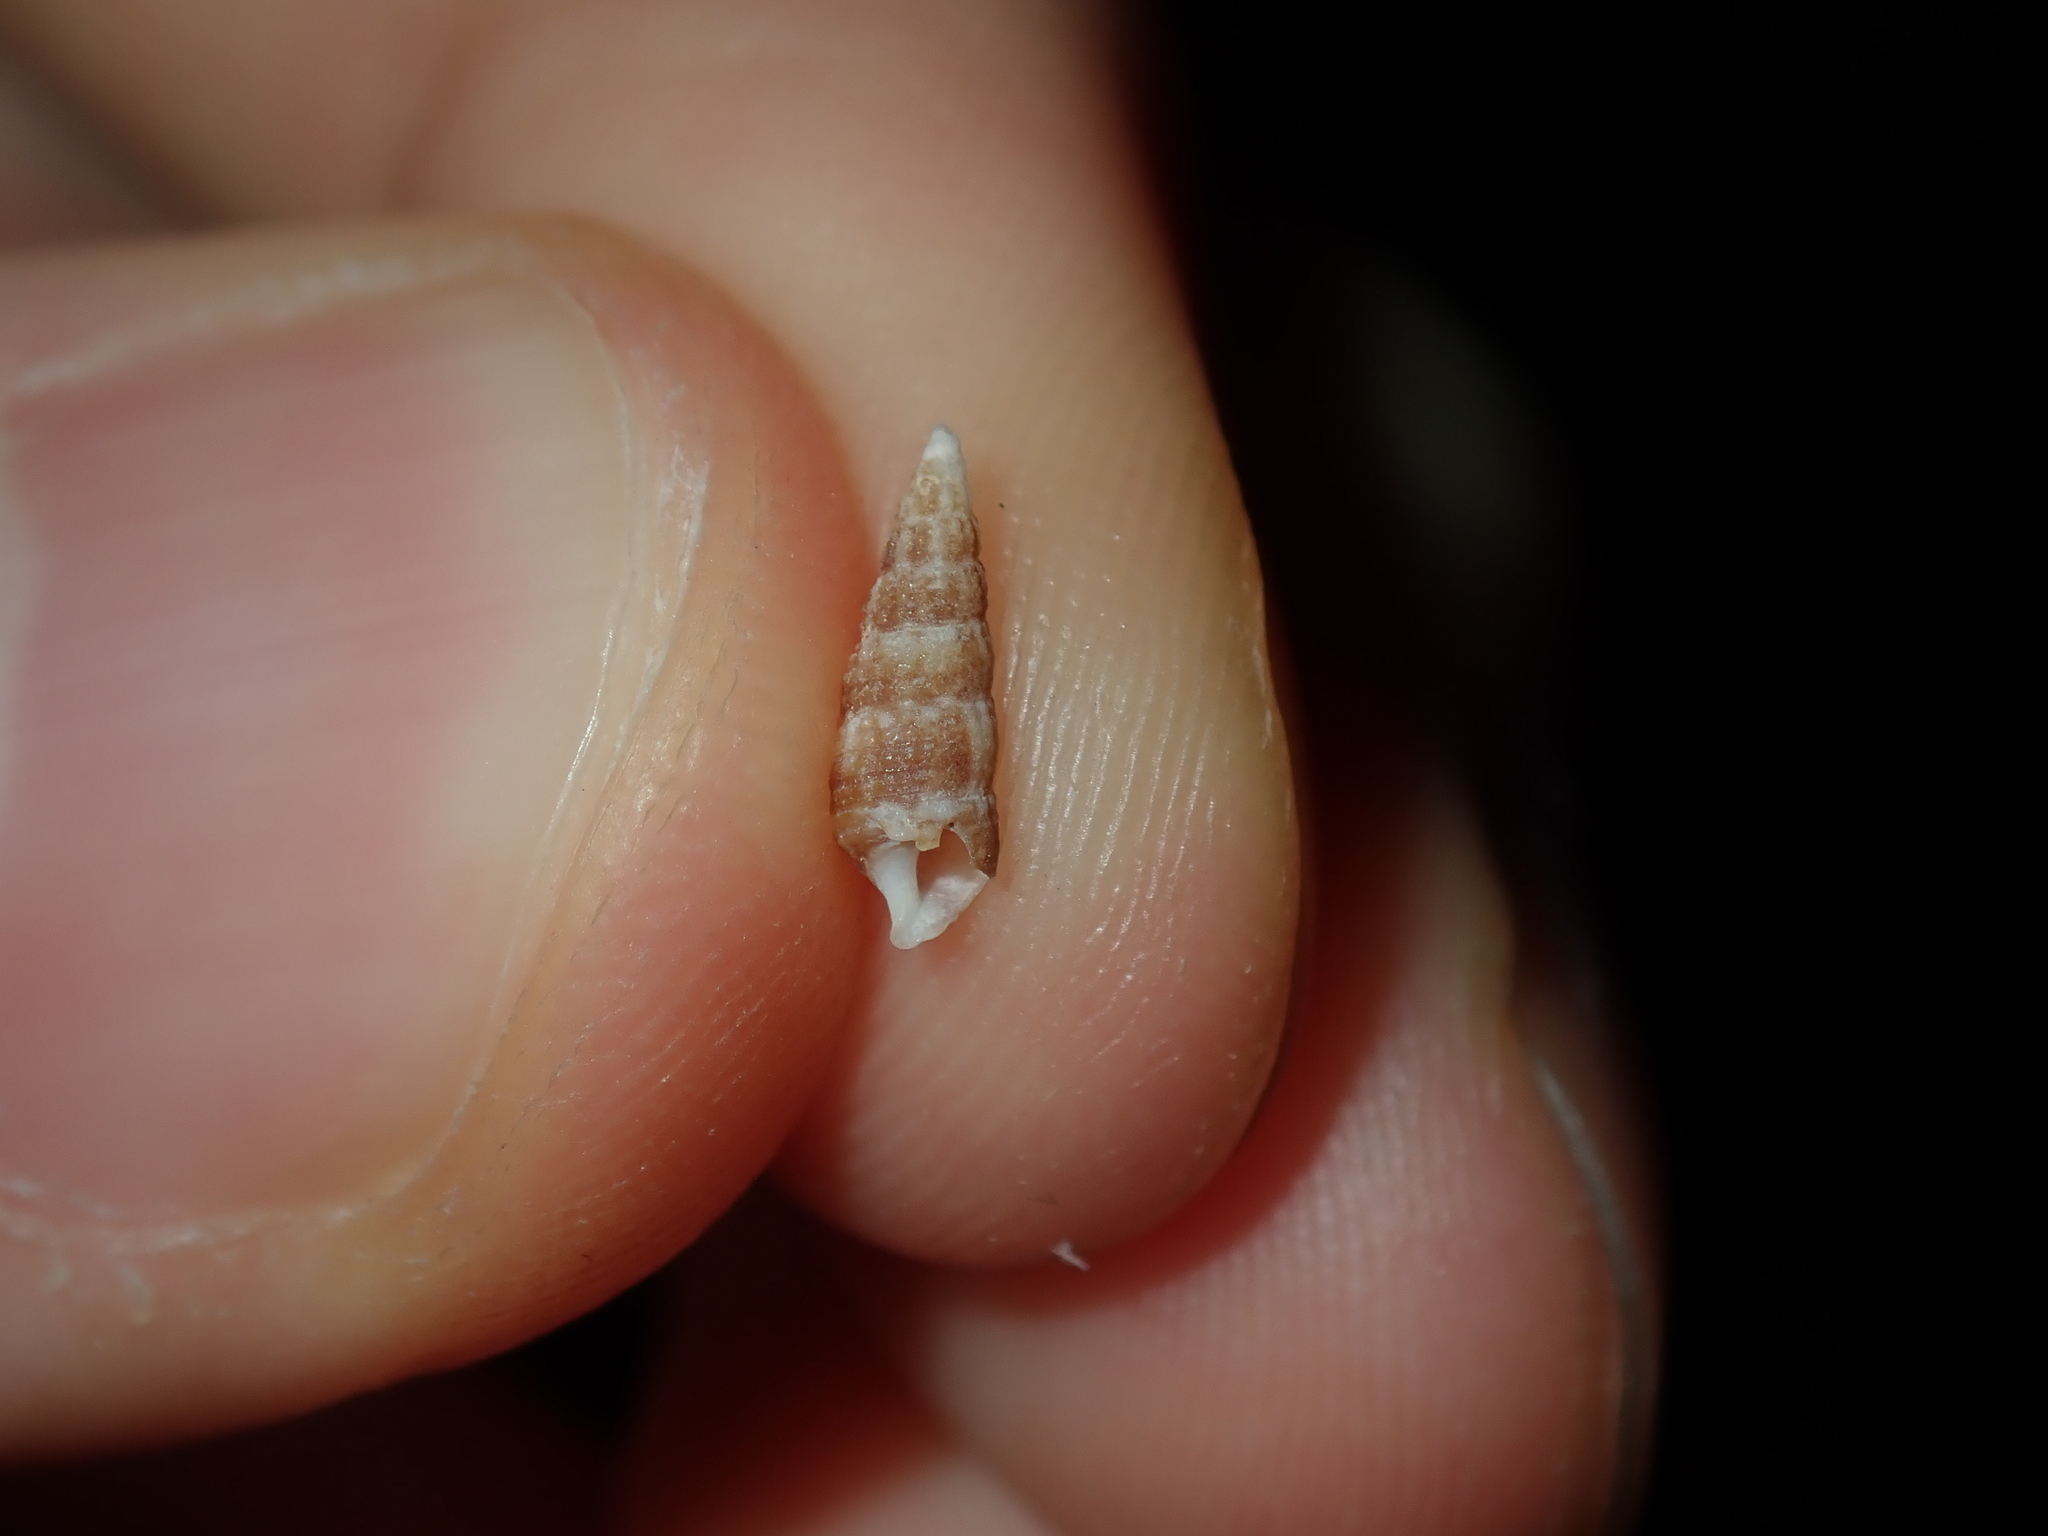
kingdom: Animalia
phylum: Mollusca
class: Gastropoda
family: Cerithiidae
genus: Cacozeliana
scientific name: Cacozeliana granarium
